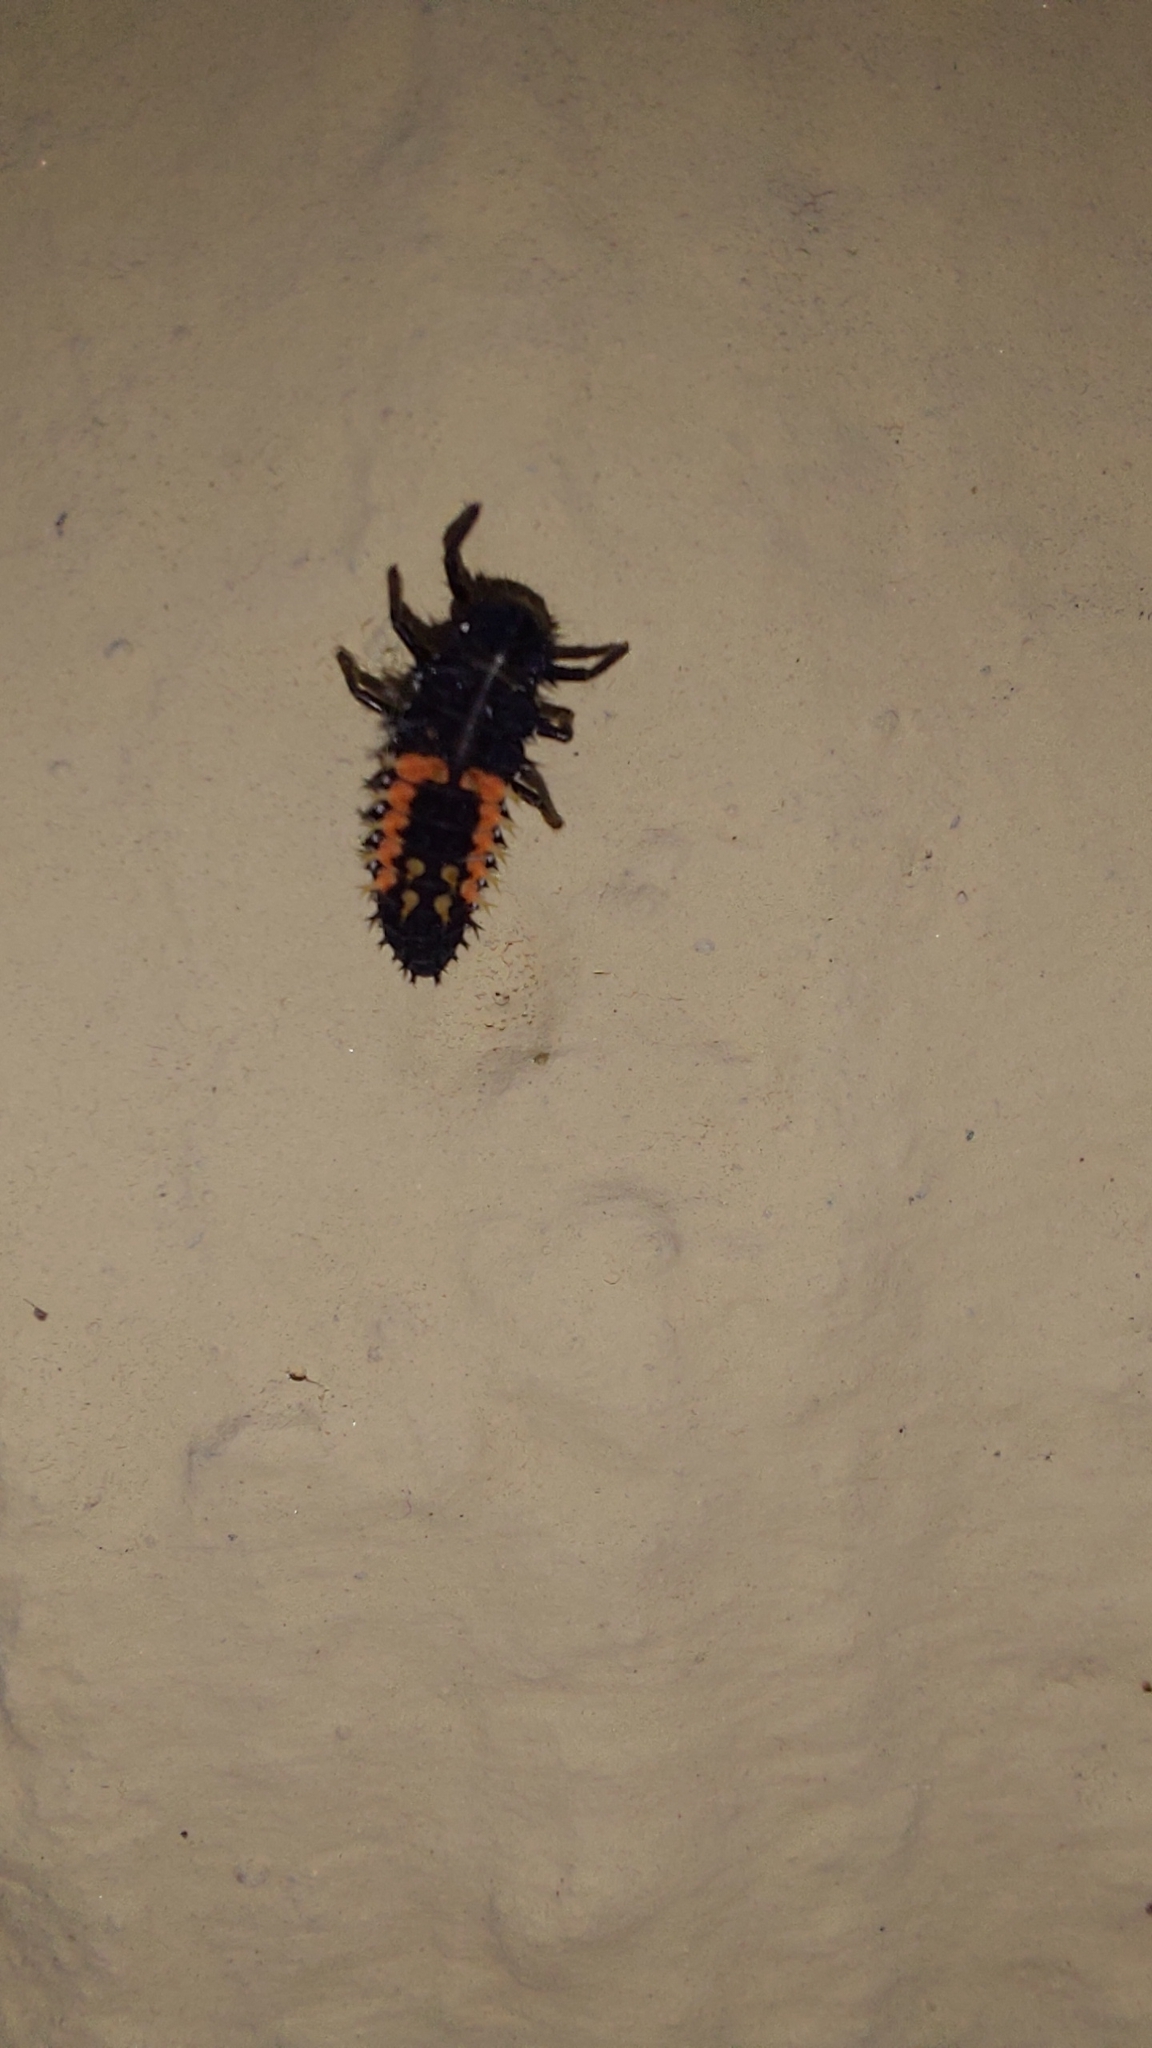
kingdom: Animalia
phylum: Arthropoda
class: Insecta
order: Coleoptera
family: Coccinellidae
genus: Harmonia
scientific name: Harmonia axyridis
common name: Harlequin ladybird
